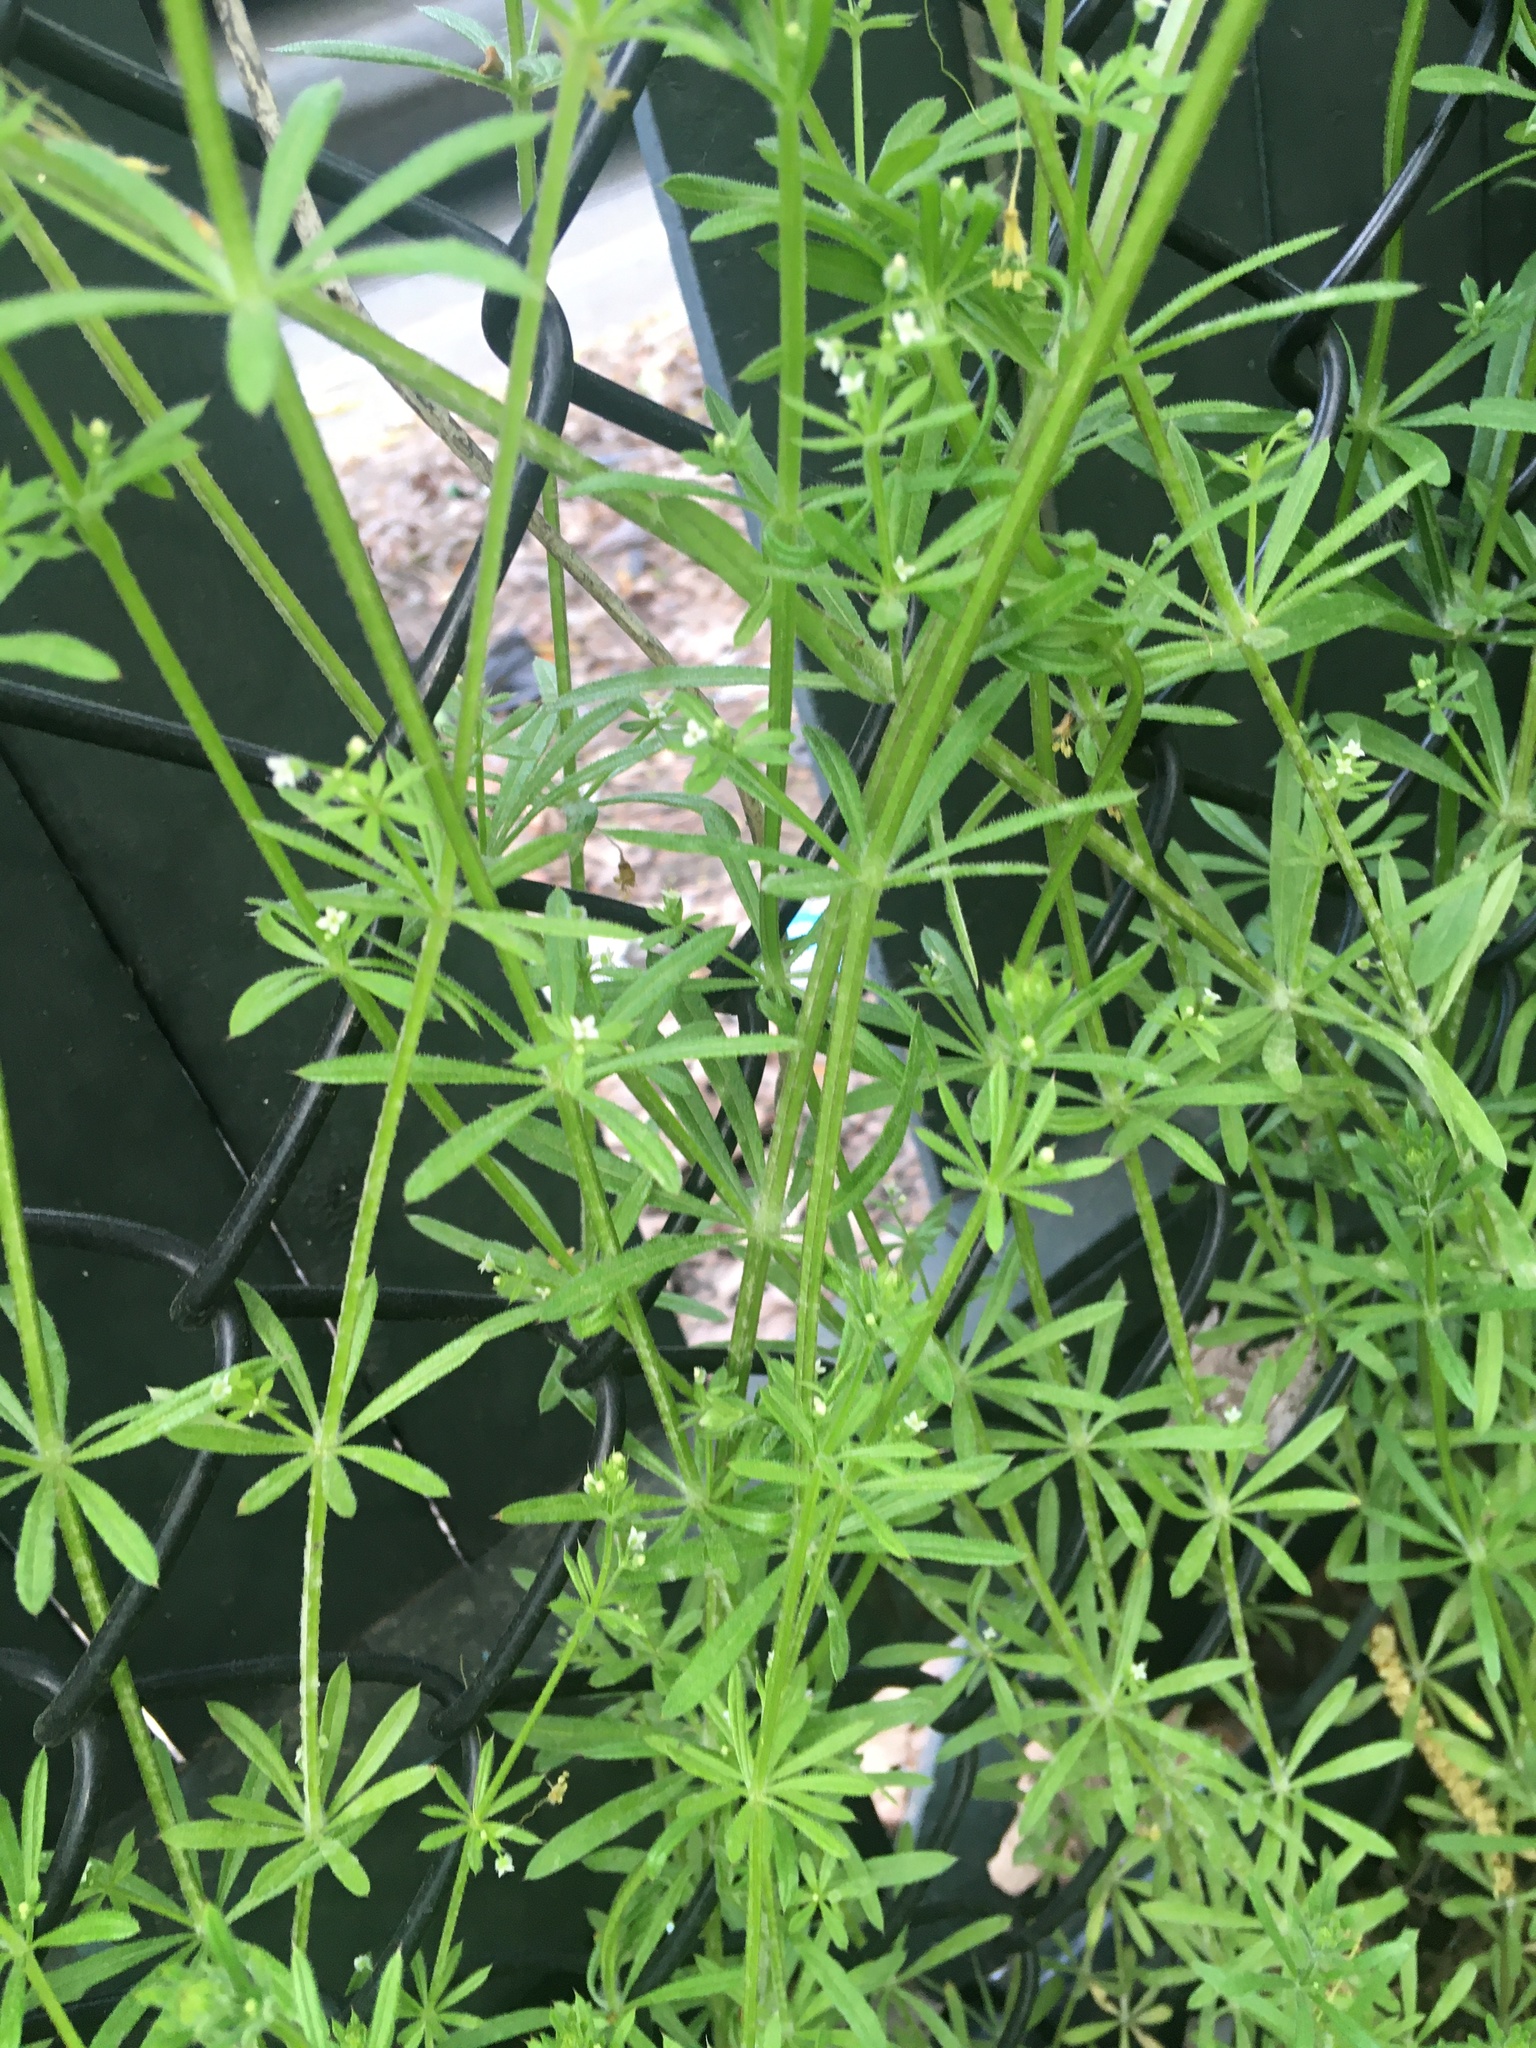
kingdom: Plantae
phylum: Tracheophyta
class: Magnoliopsida
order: Gentianales
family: Rubiaceae
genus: Galium
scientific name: Galium aparine
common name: Cleavers
